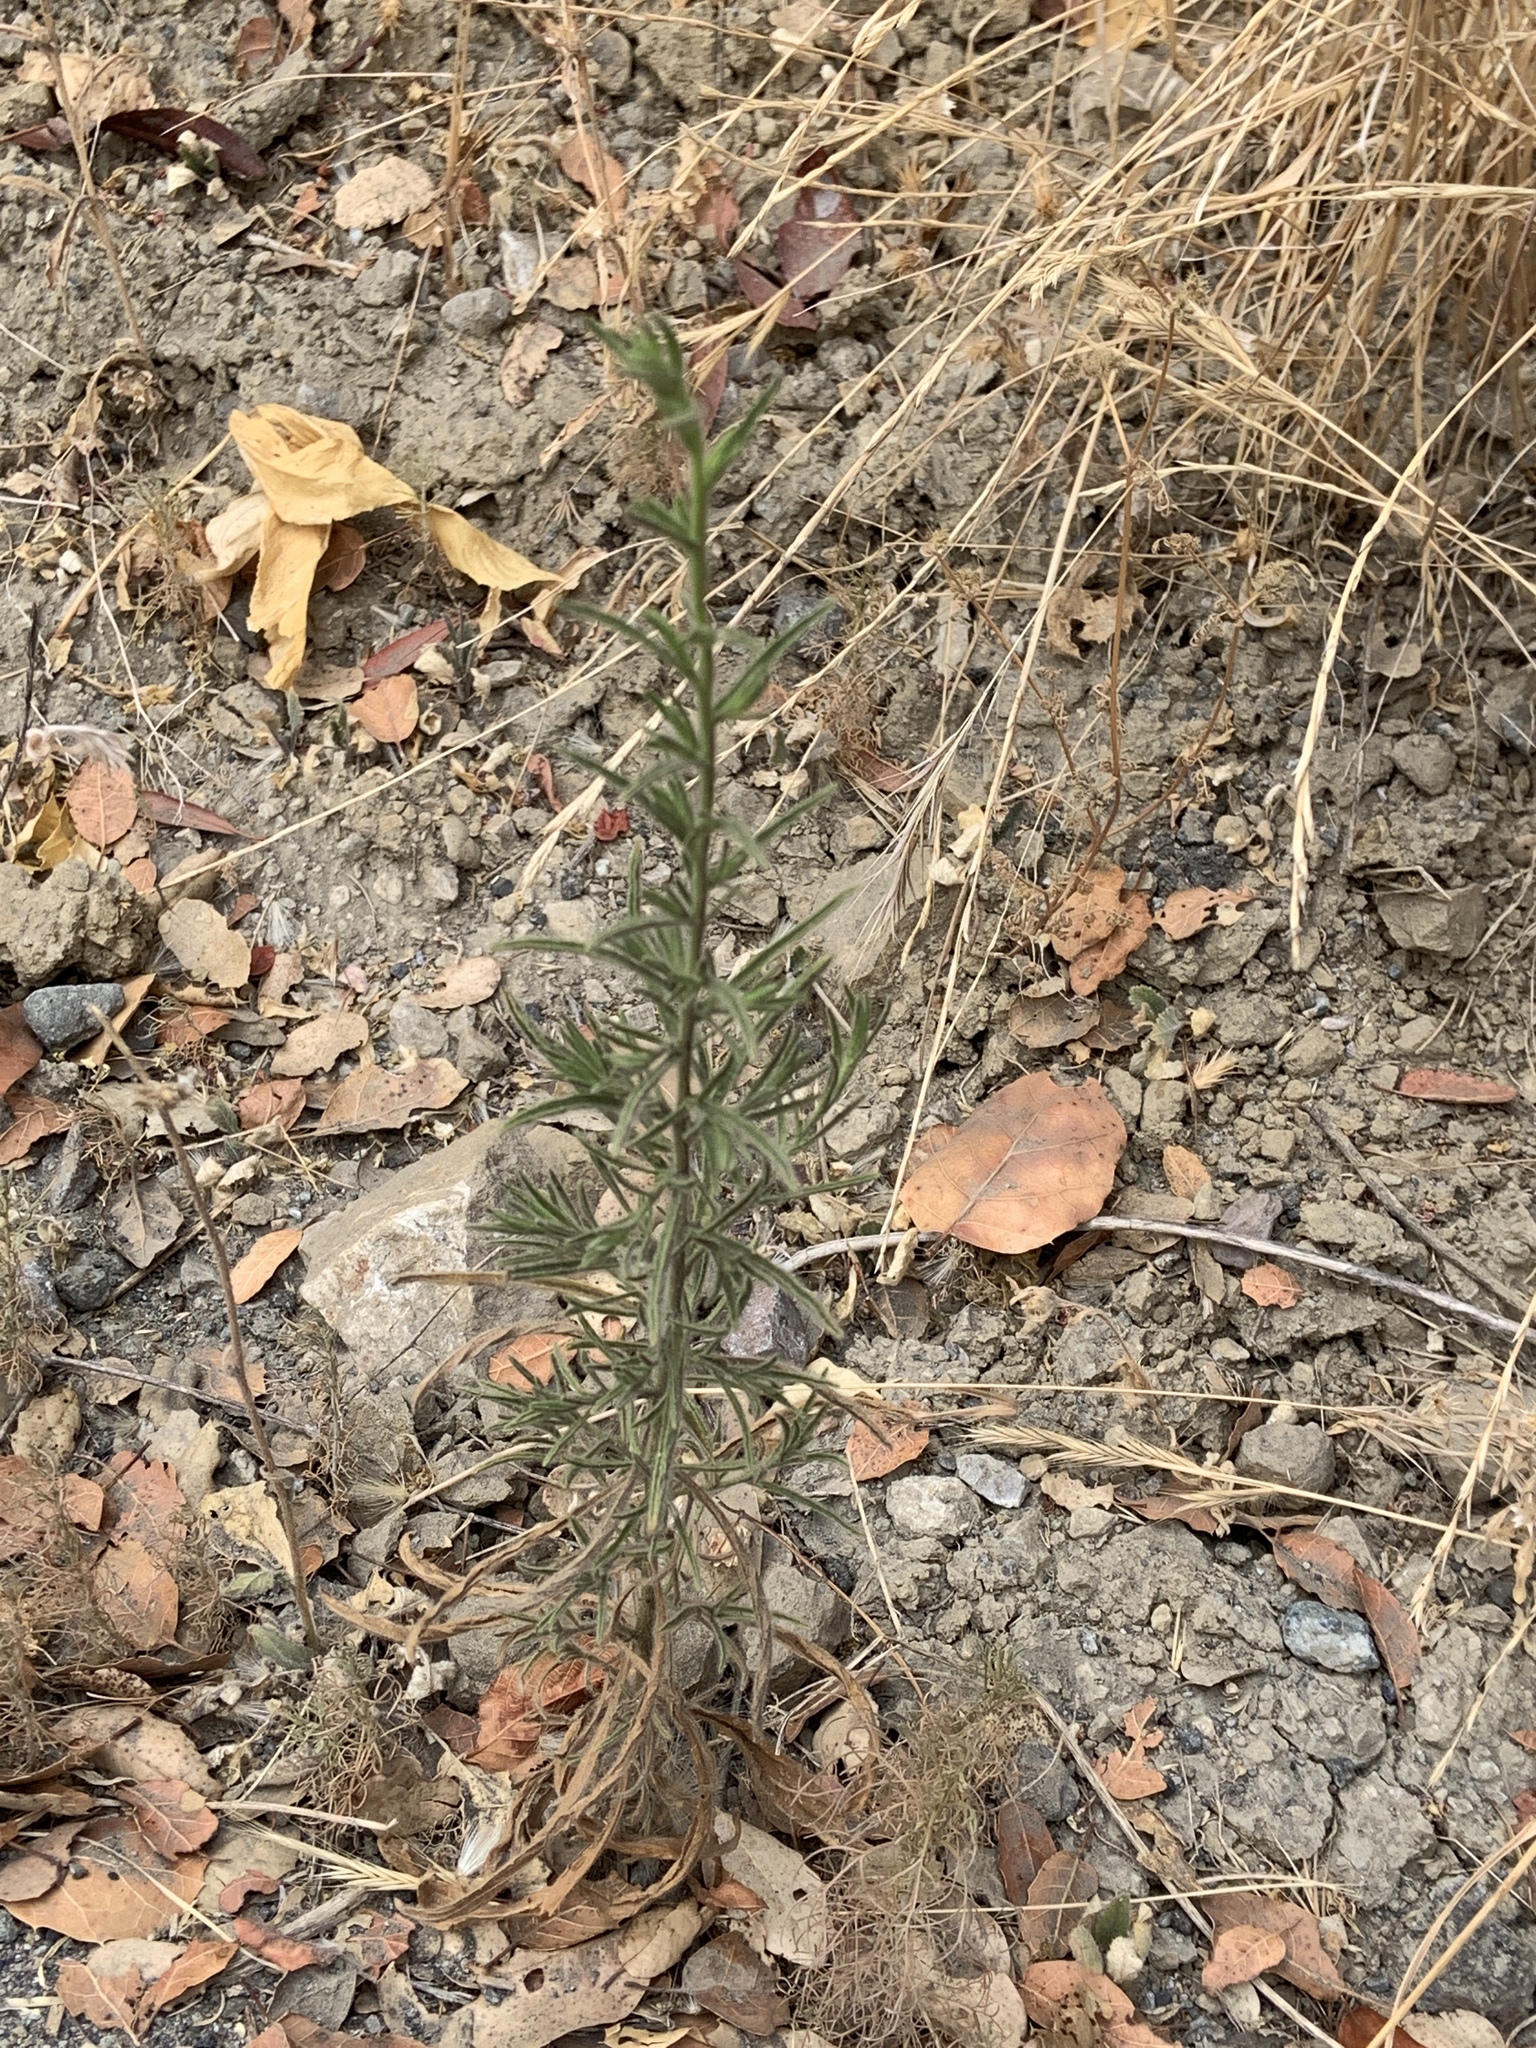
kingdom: Plantae
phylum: Tracheophyta
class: Magnoliopsida
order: Asterales
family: Asteraceae
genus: Dittrichia
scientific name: Dittrichia graveolens
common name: Stinking fleabane
